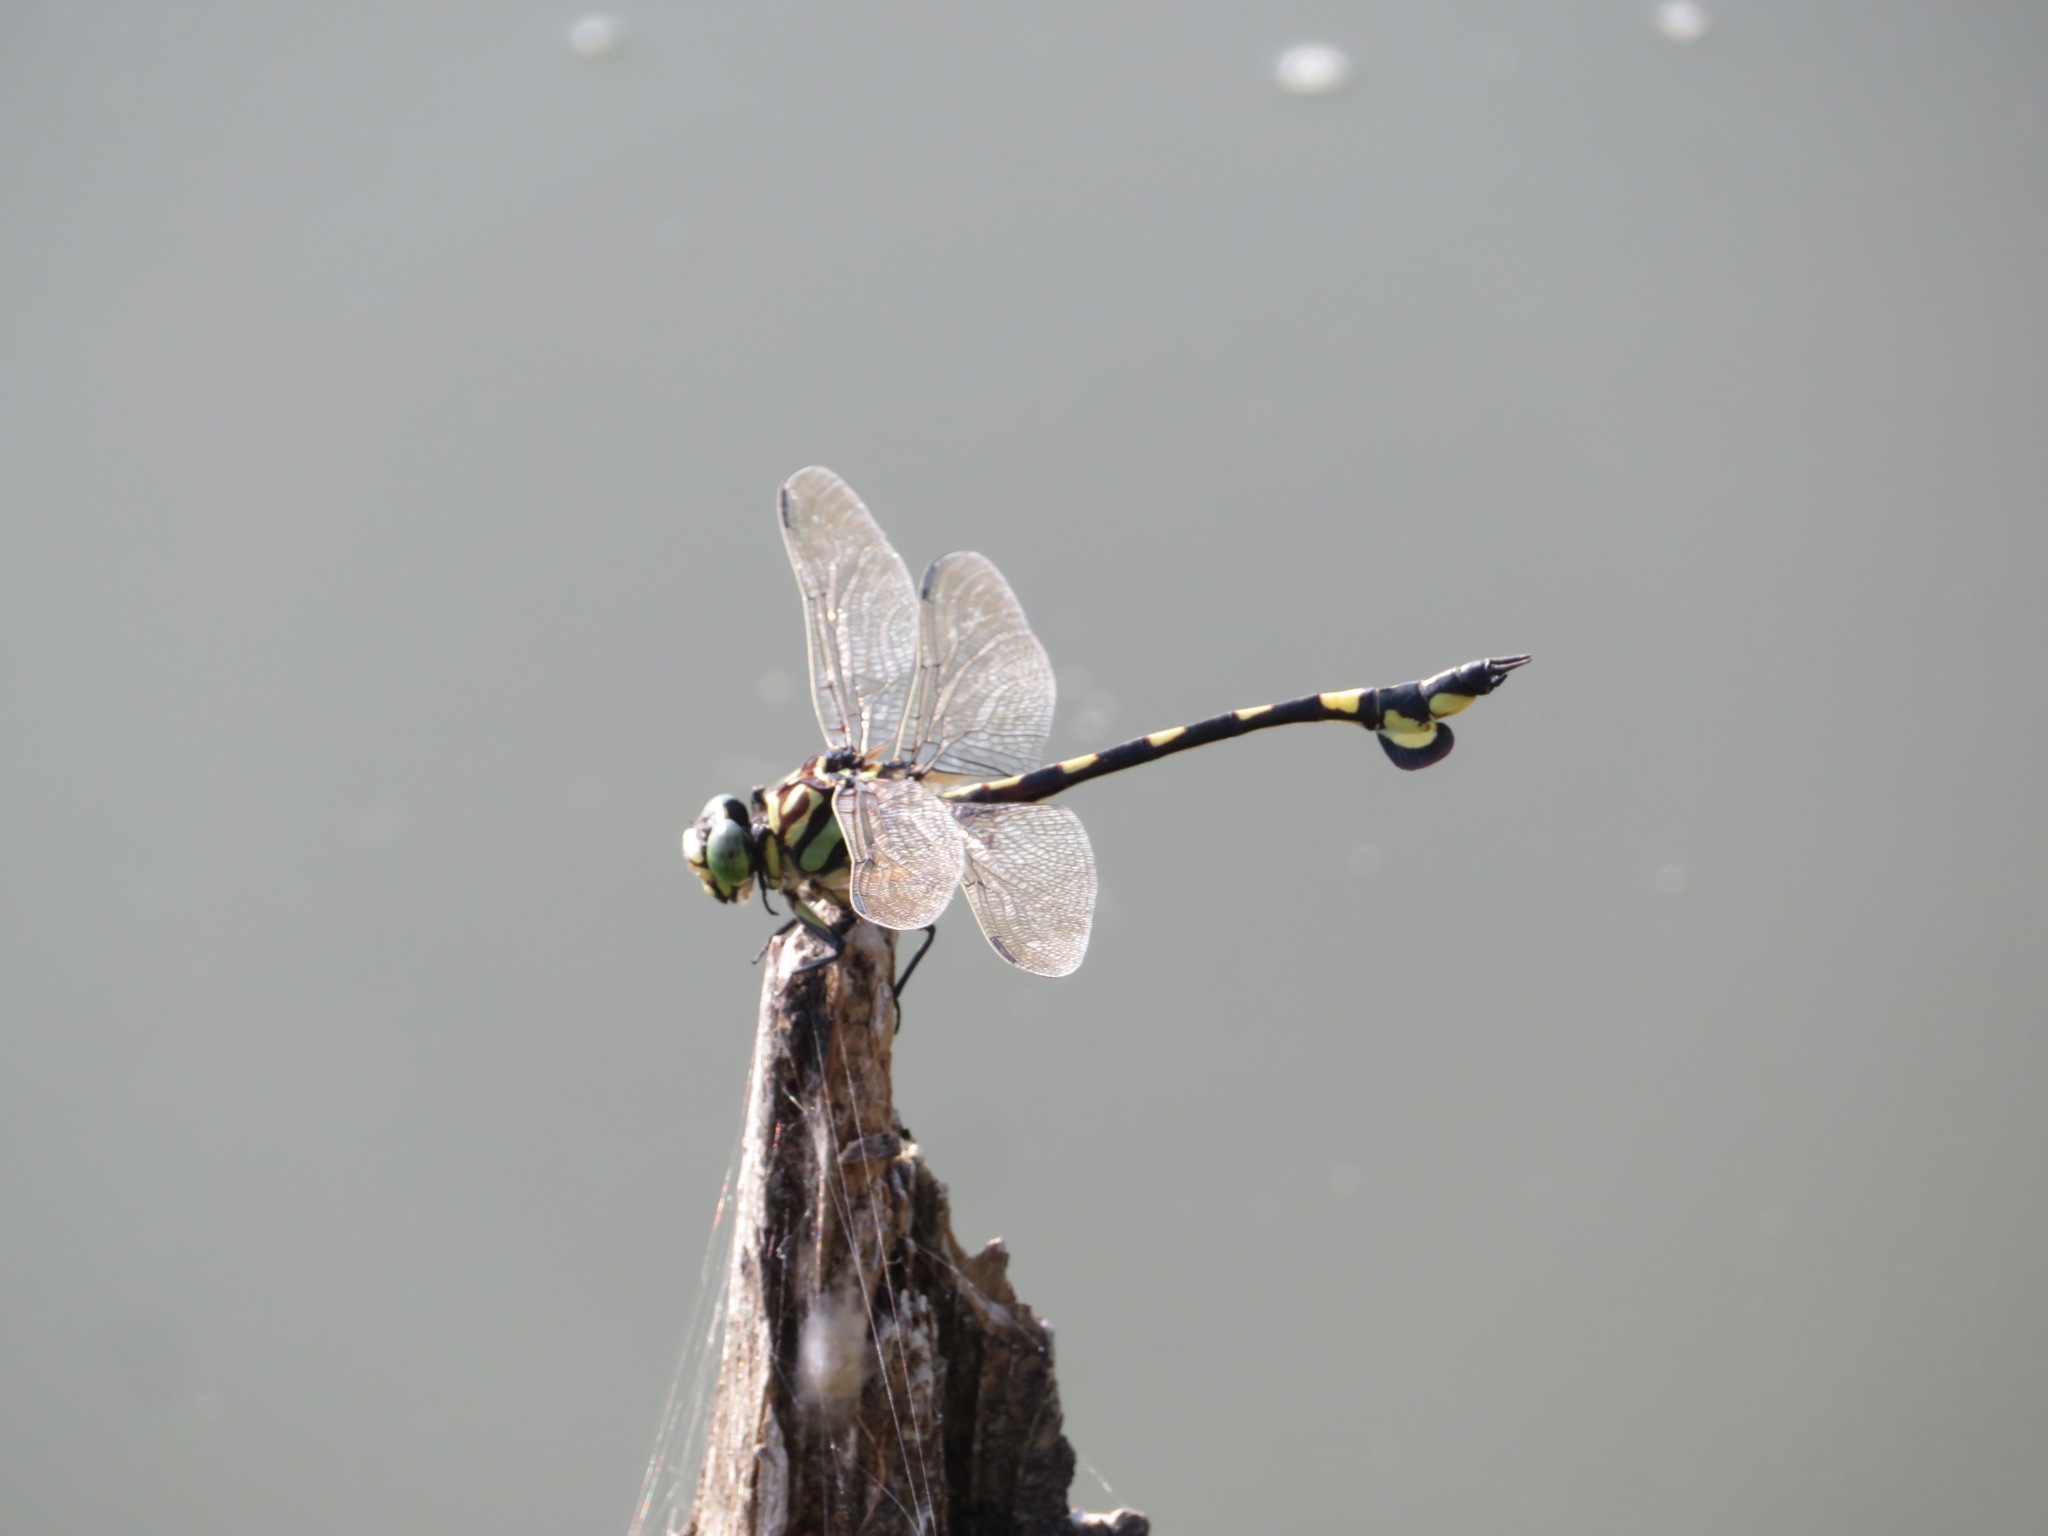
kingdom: Animalia
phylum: Arthropoda
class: Insecta
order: Odonata
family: Gomphidae
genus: Sinictinogomphus
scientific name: Sinictinogomphus clavatus
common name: Golden flangetail
